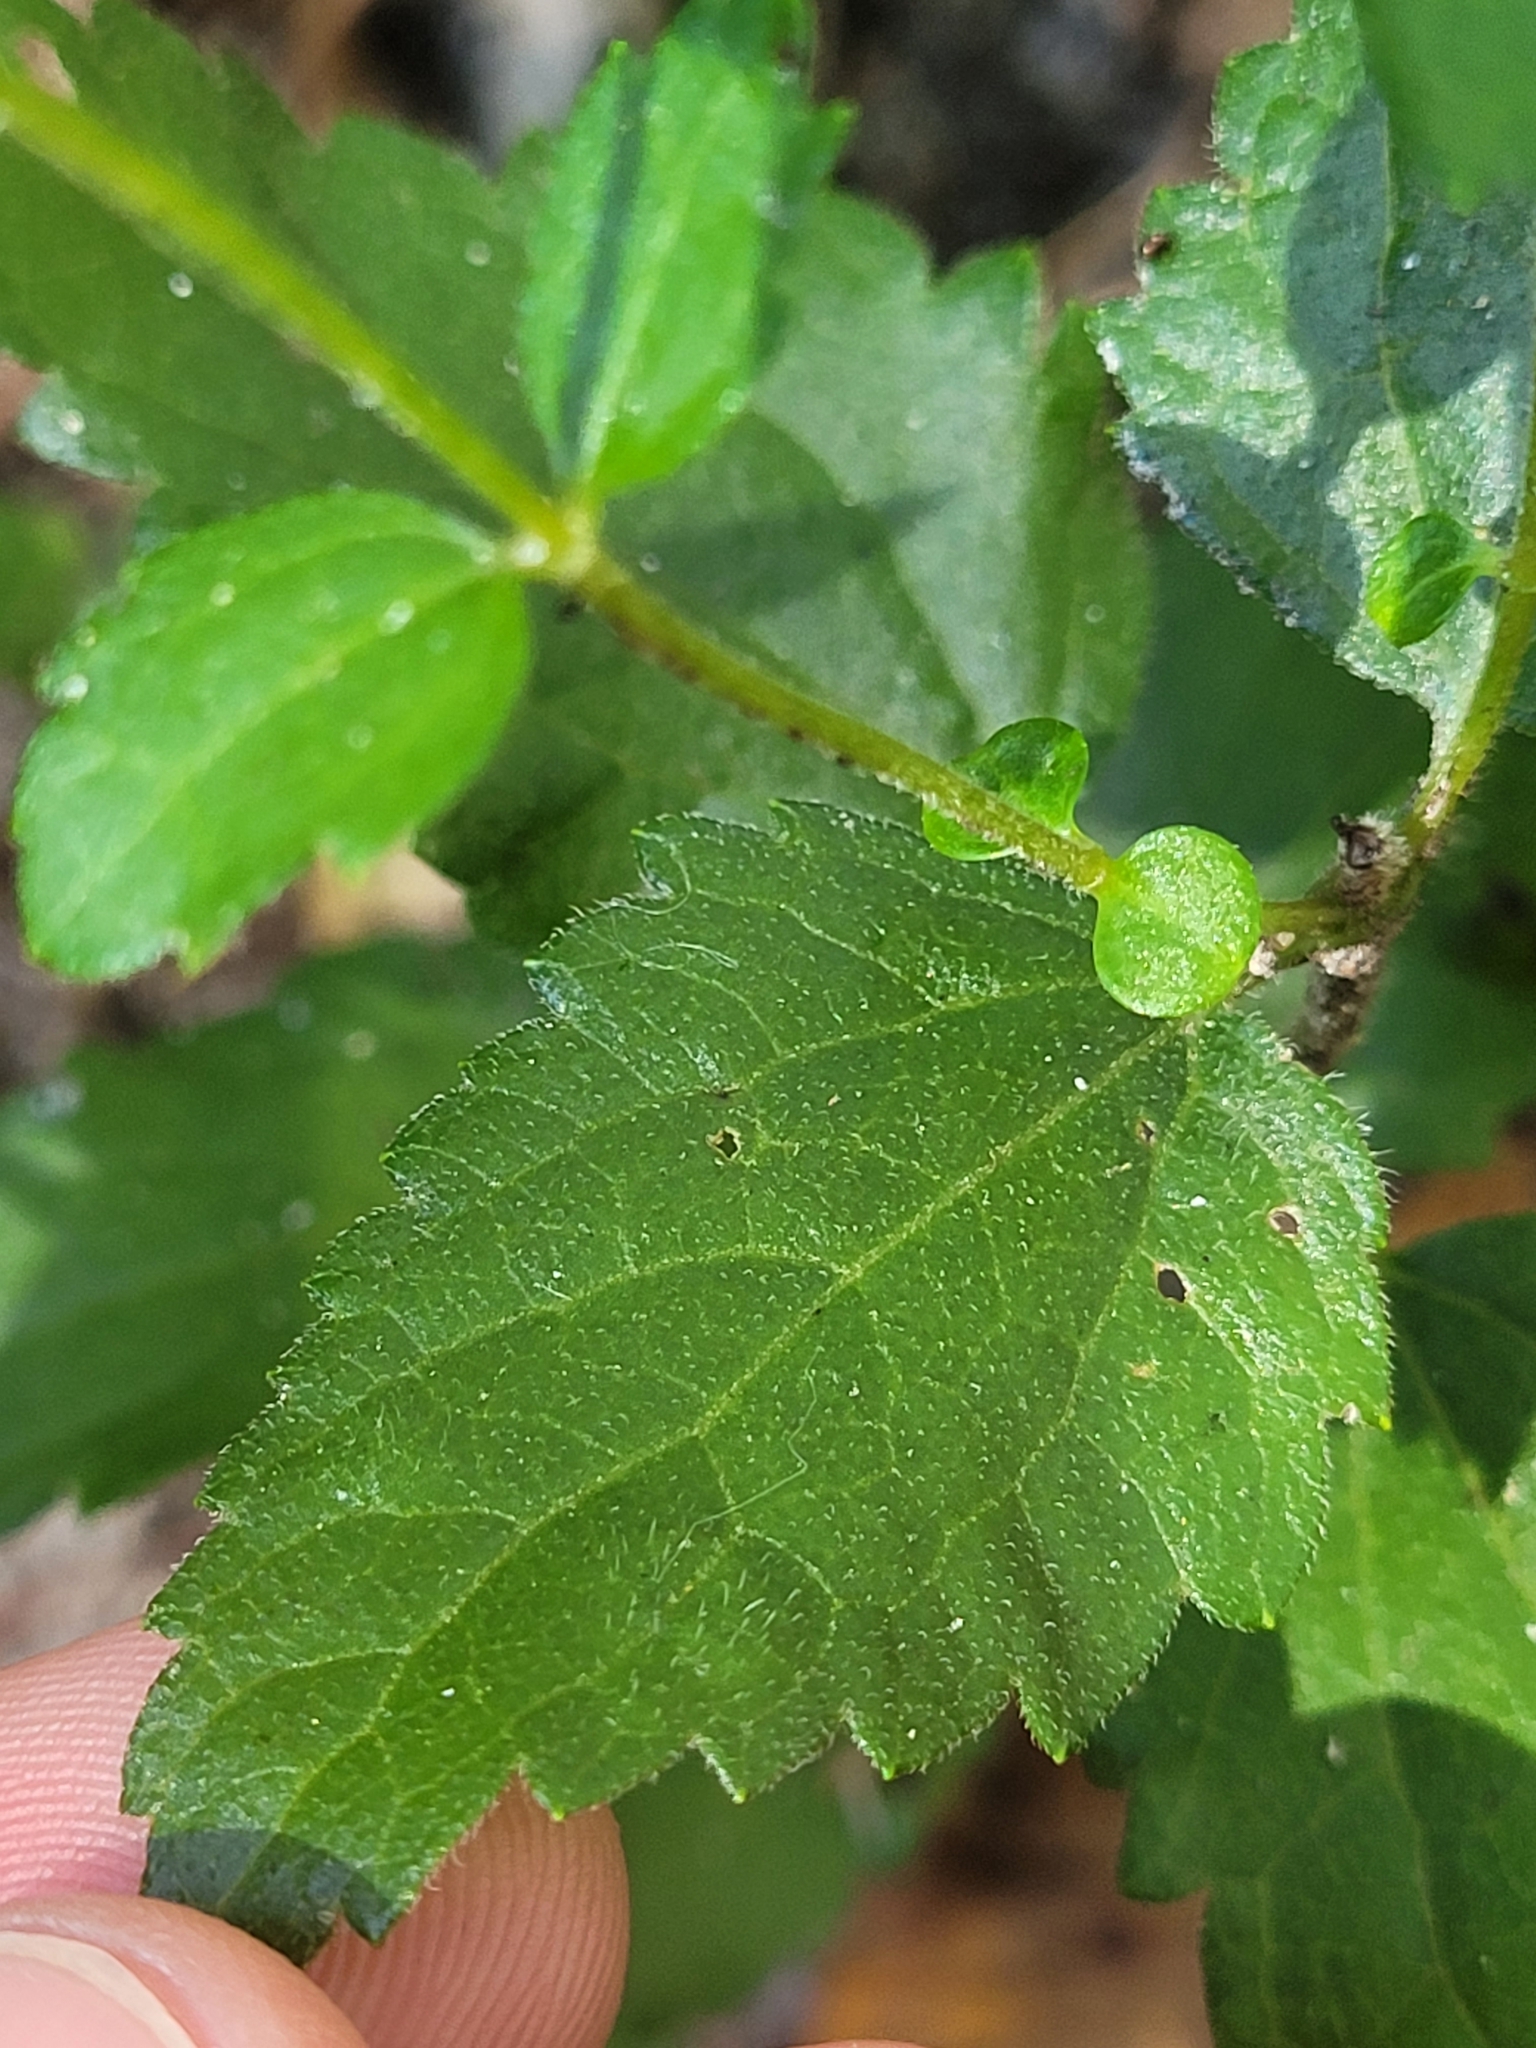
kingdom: Plantae
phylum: Tracheophyta
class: Magnoliopsida
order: Asterales
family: Asteraceae
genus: Ageratina
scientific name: Ageratina aromatica
